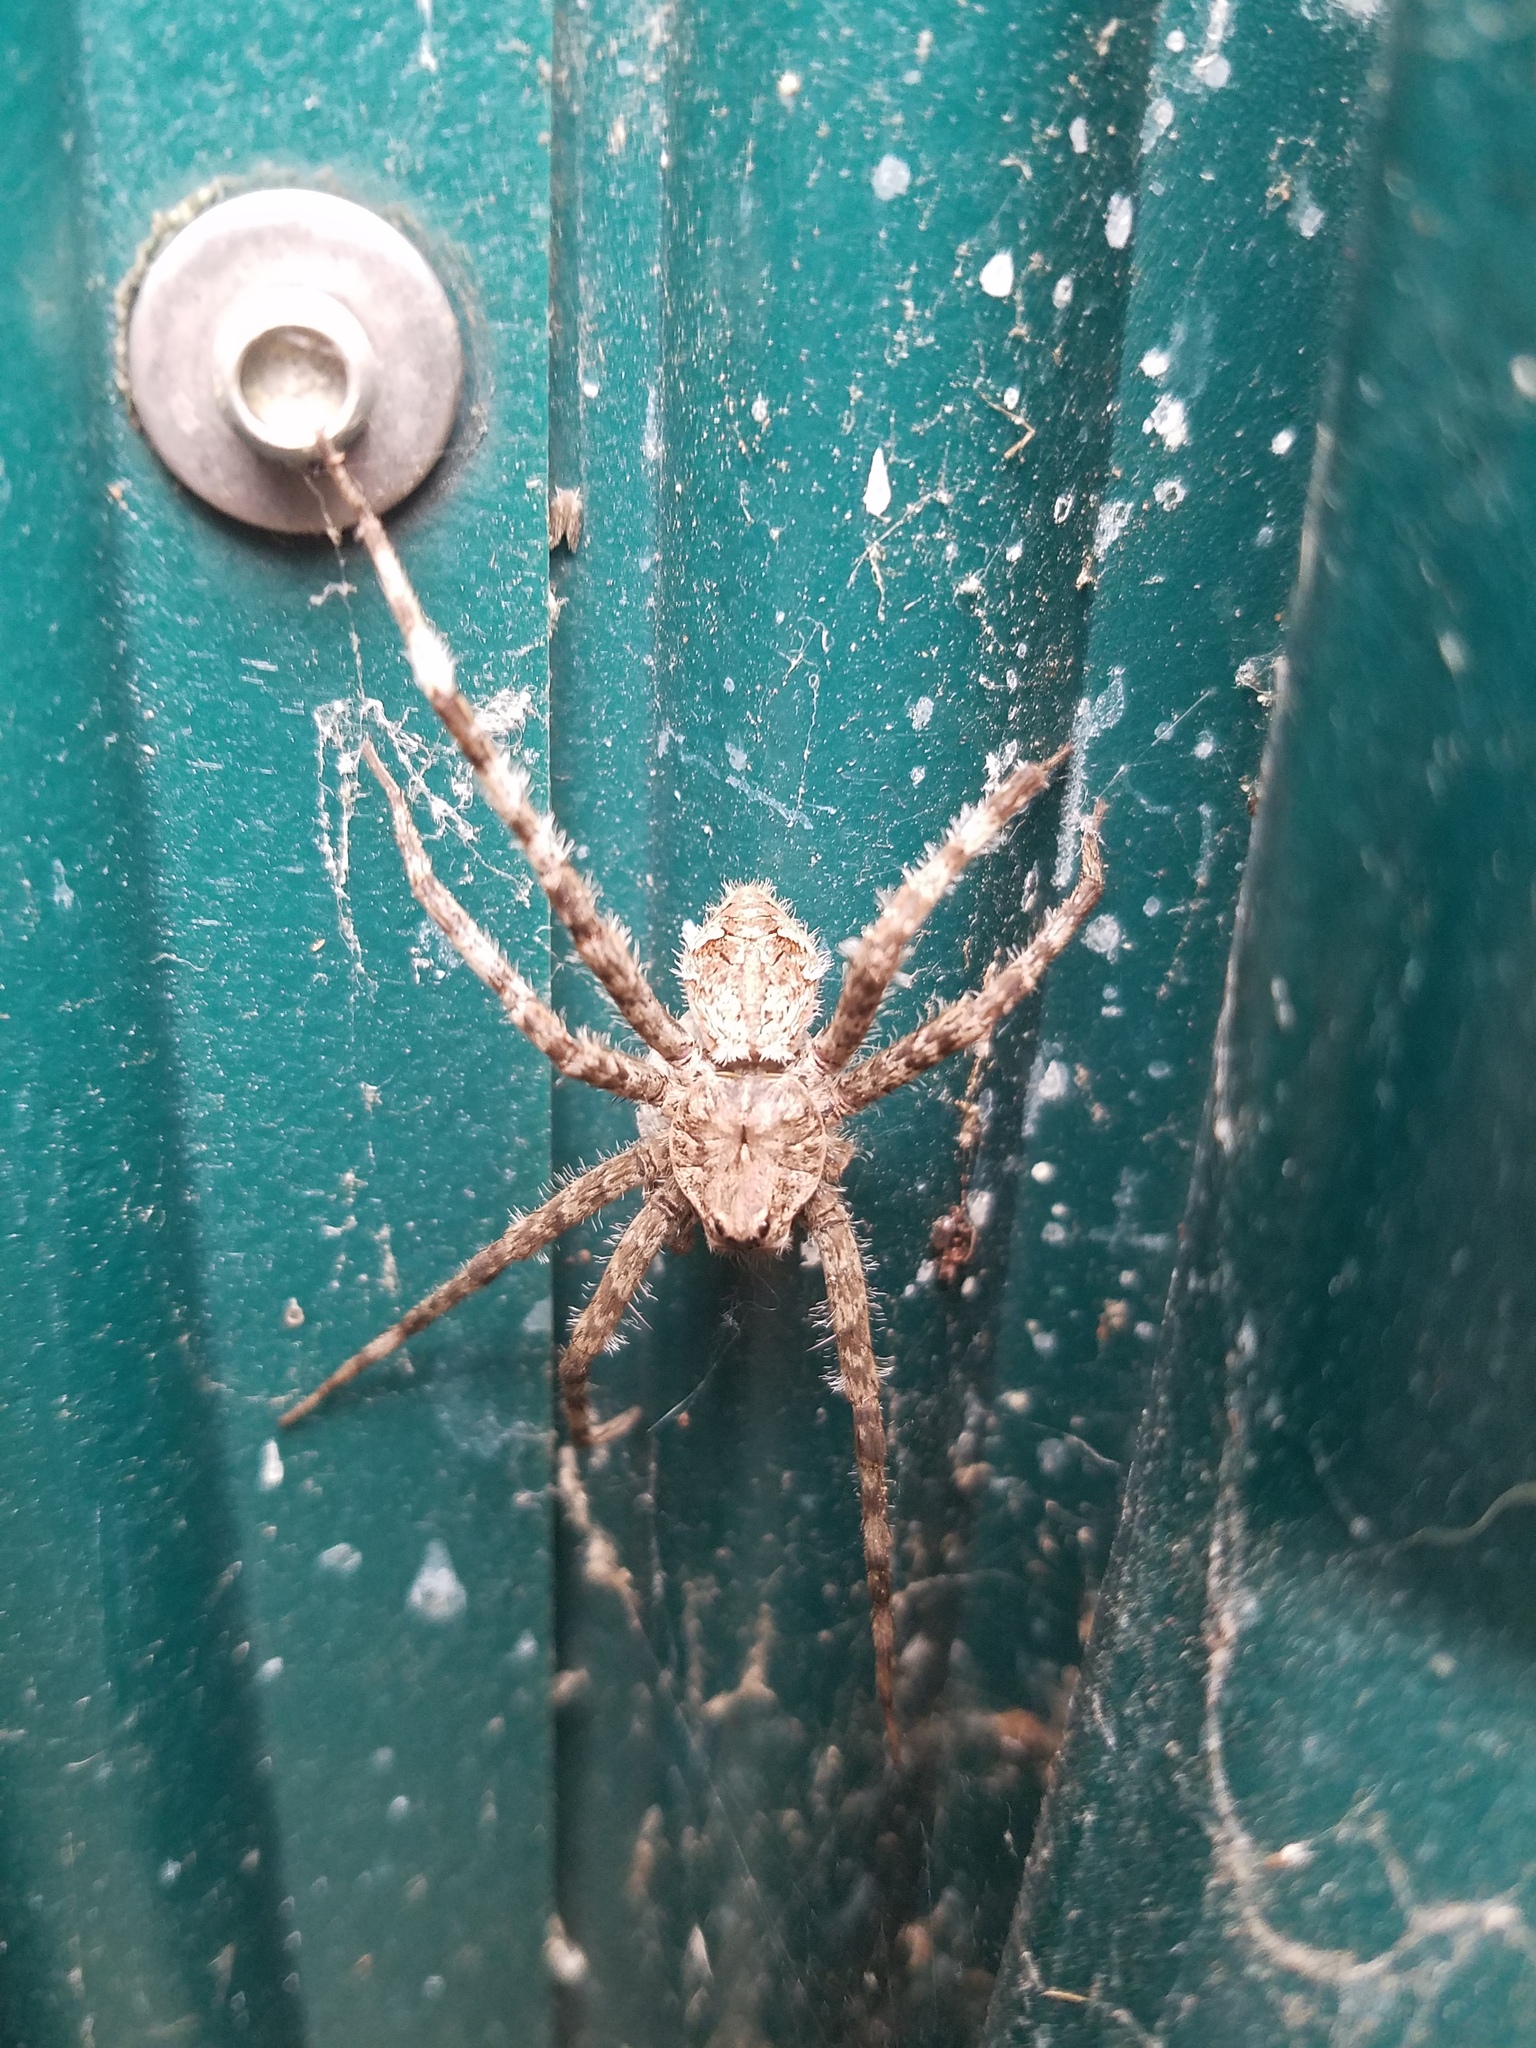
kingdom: Animalia
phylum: Arthropoda
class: Arachnida
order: Araneae
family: Pisauridae
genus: Dolomedes
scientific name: Dolomedes albineus
